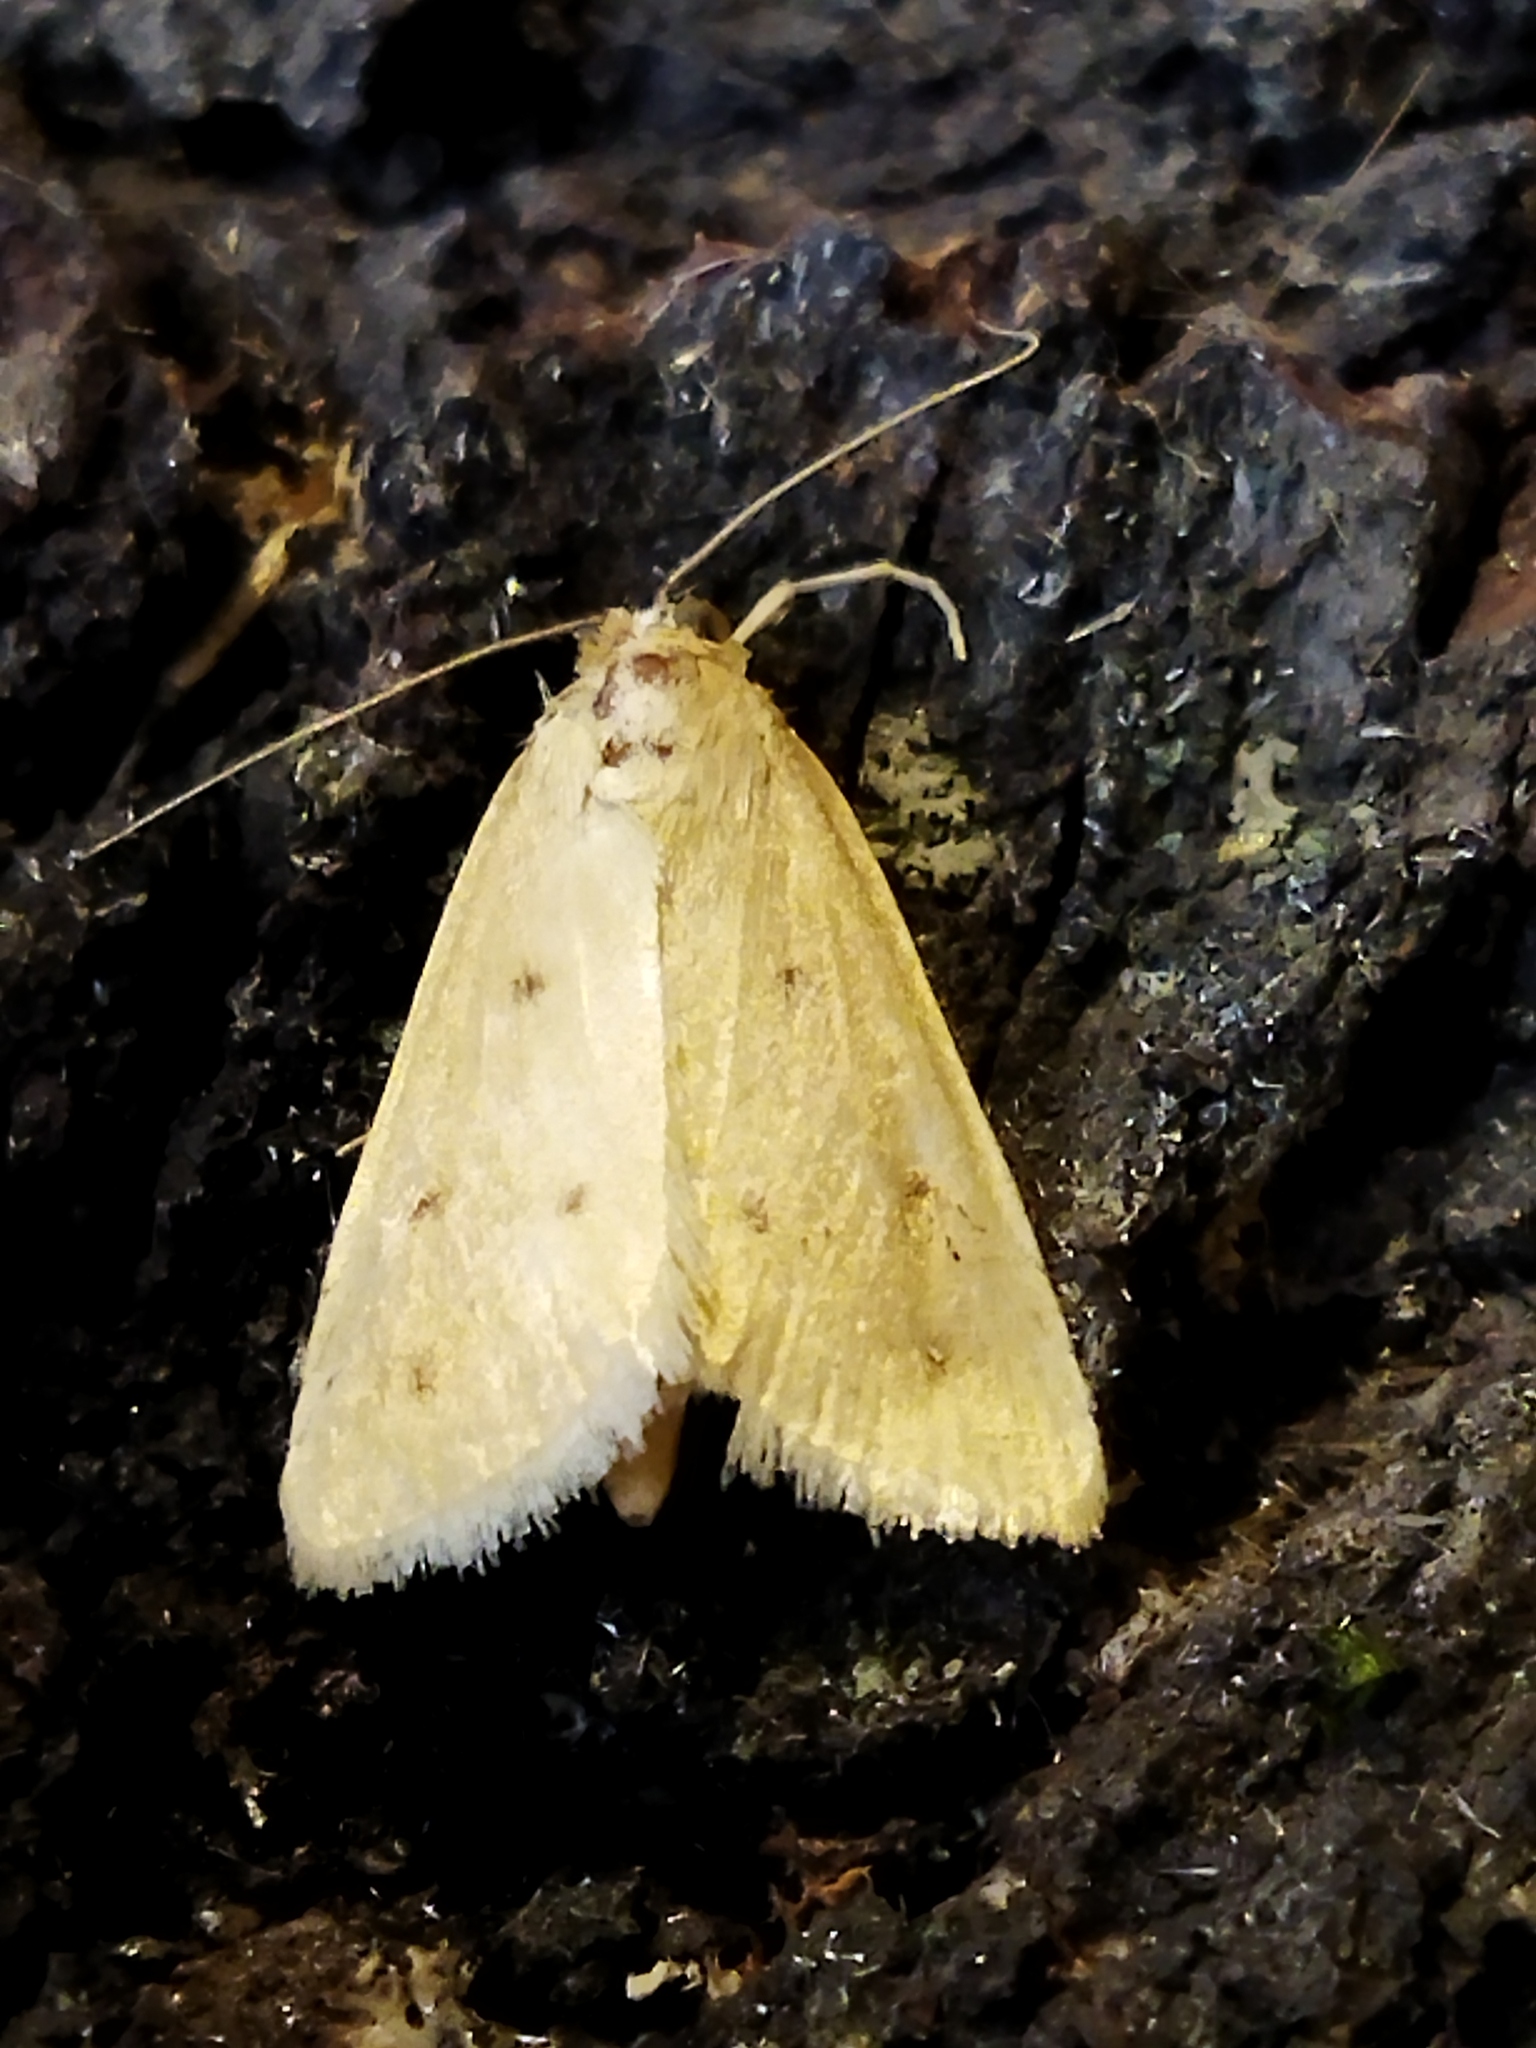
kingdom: Animalia
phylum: Arthropoda
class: Insecta
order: Lepidoptera
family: Crambidae
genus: Achyra
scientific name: Achyra nudalis
